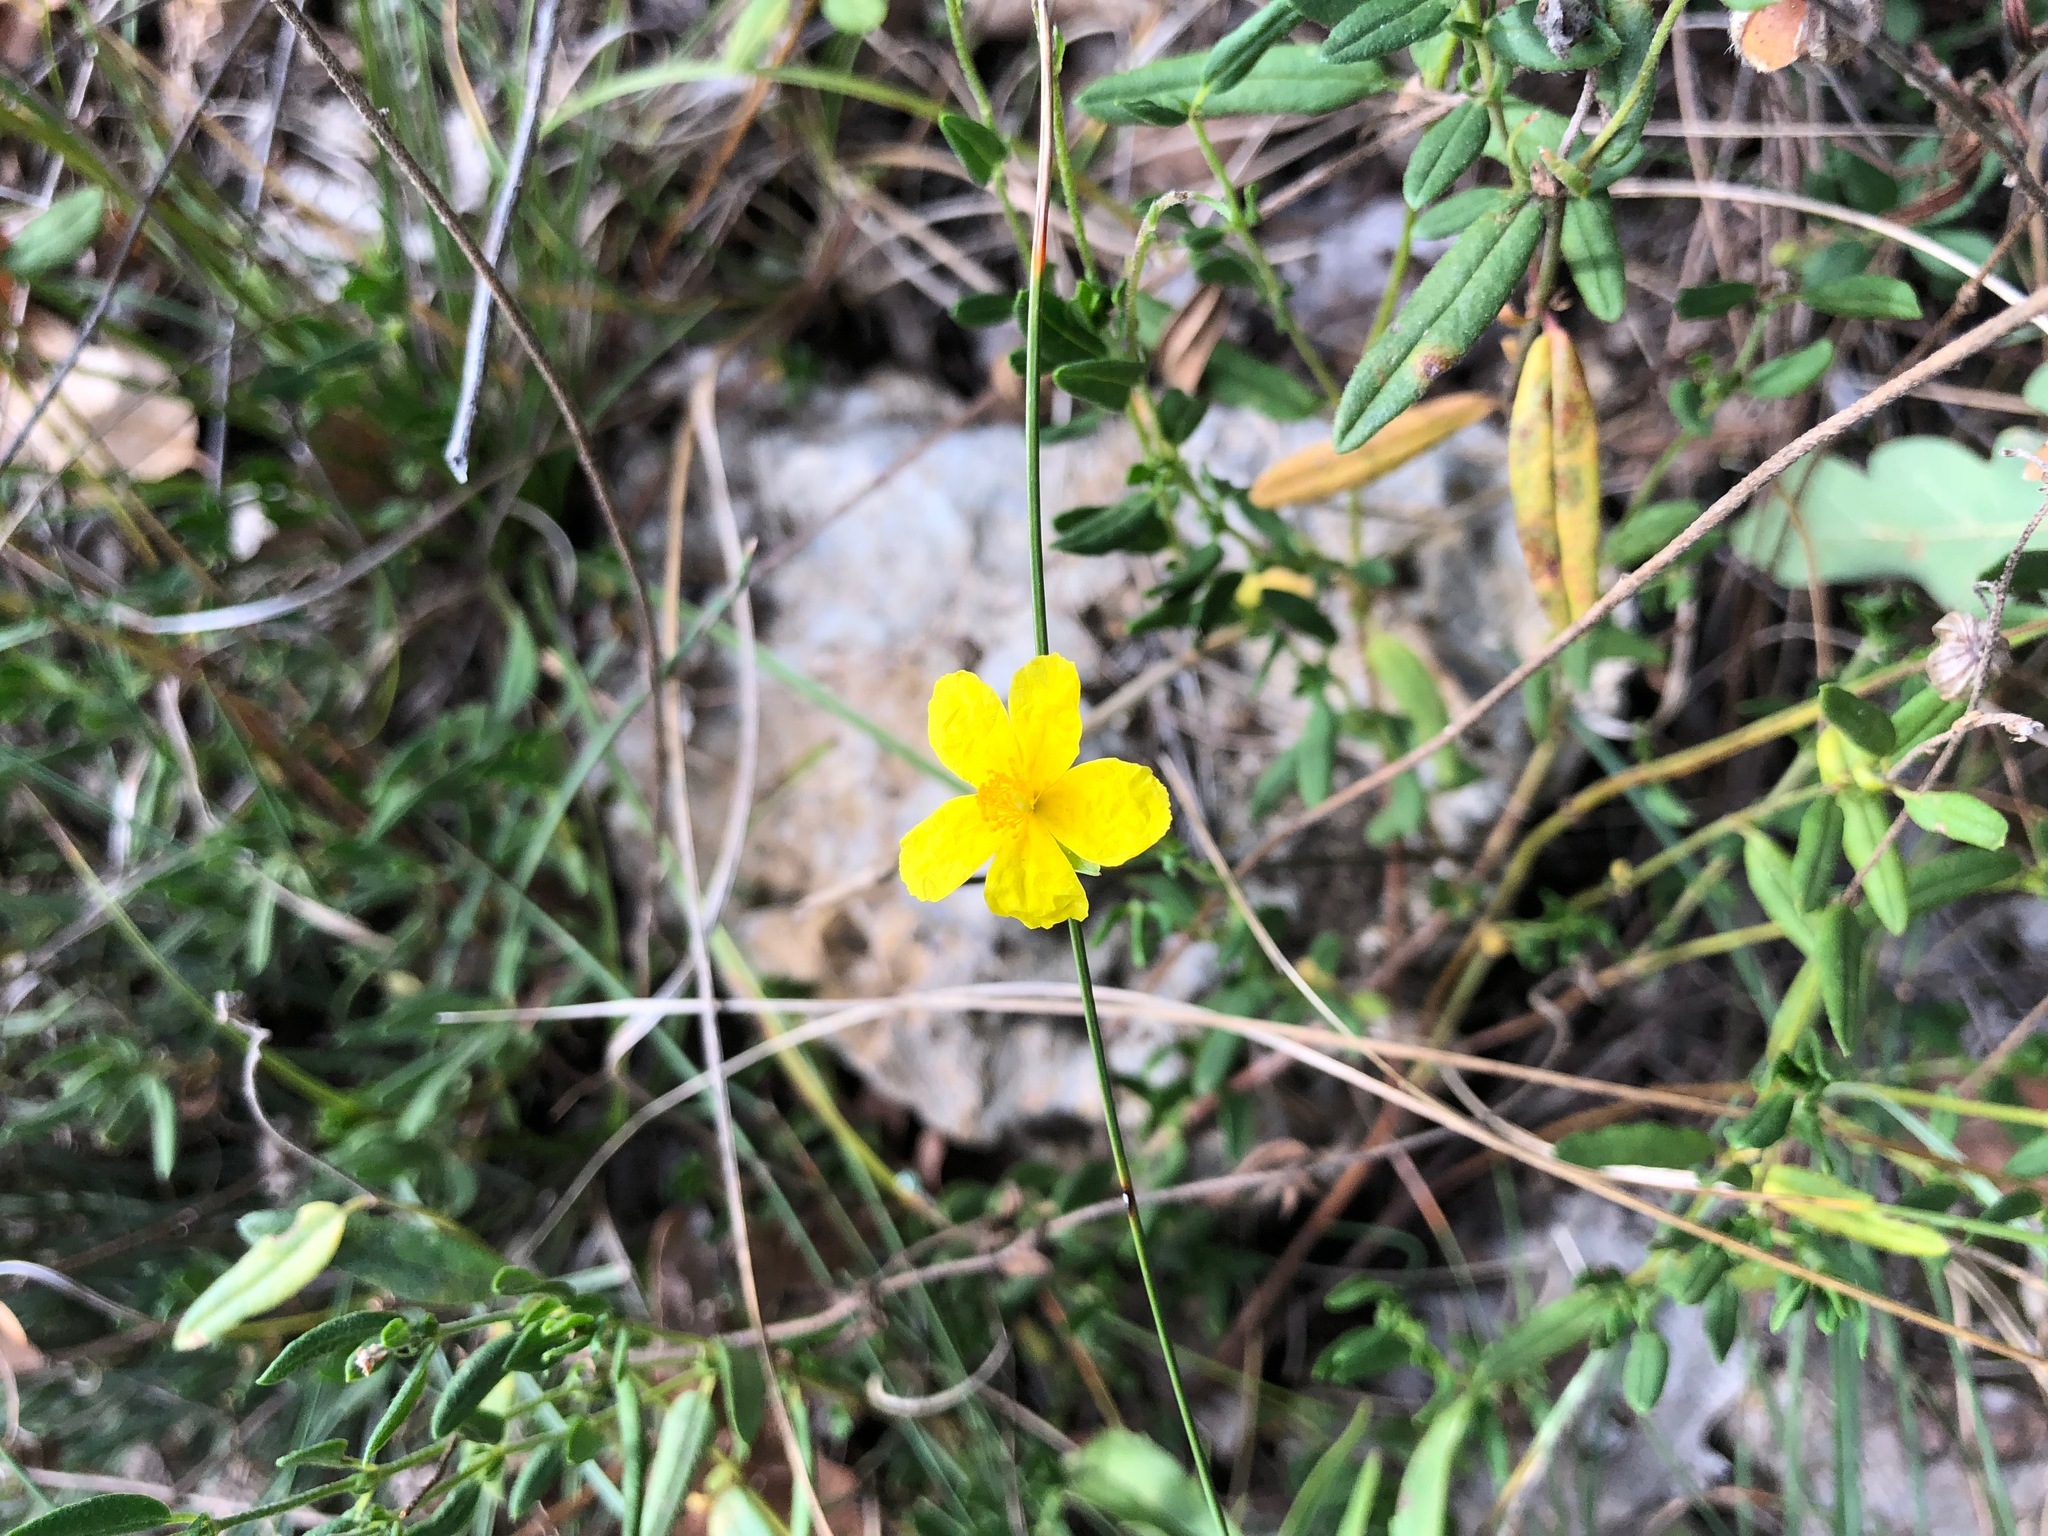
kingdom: Plantae
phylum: Tracheophyta
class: Magnoliopsida
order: Malvales
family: Cistaceae
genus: Helianthemum
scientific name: Helianthemum nummularium
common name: Common rock-rose
